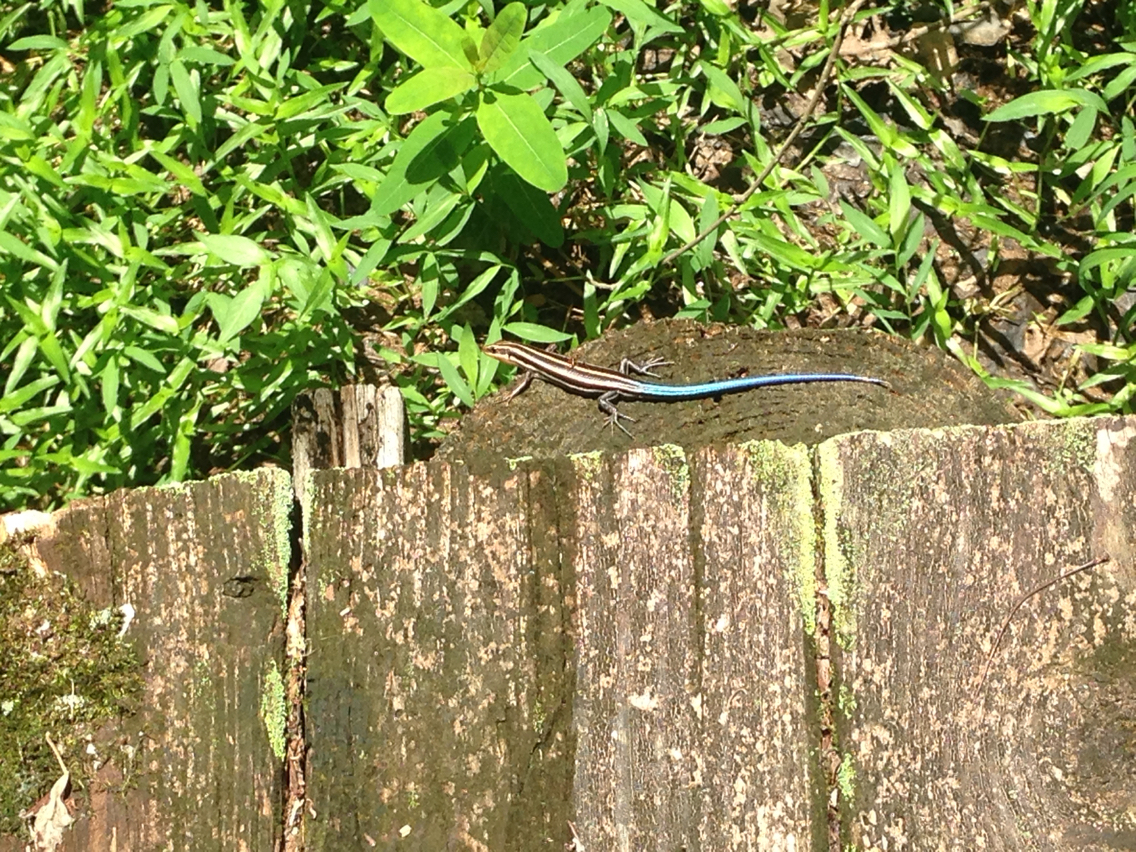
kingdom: Animalia
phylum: Chordata
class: Squamata
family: Scincidae
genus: Plestiodon
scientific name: Plestiodon fasciatus
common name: Five-lined skink
